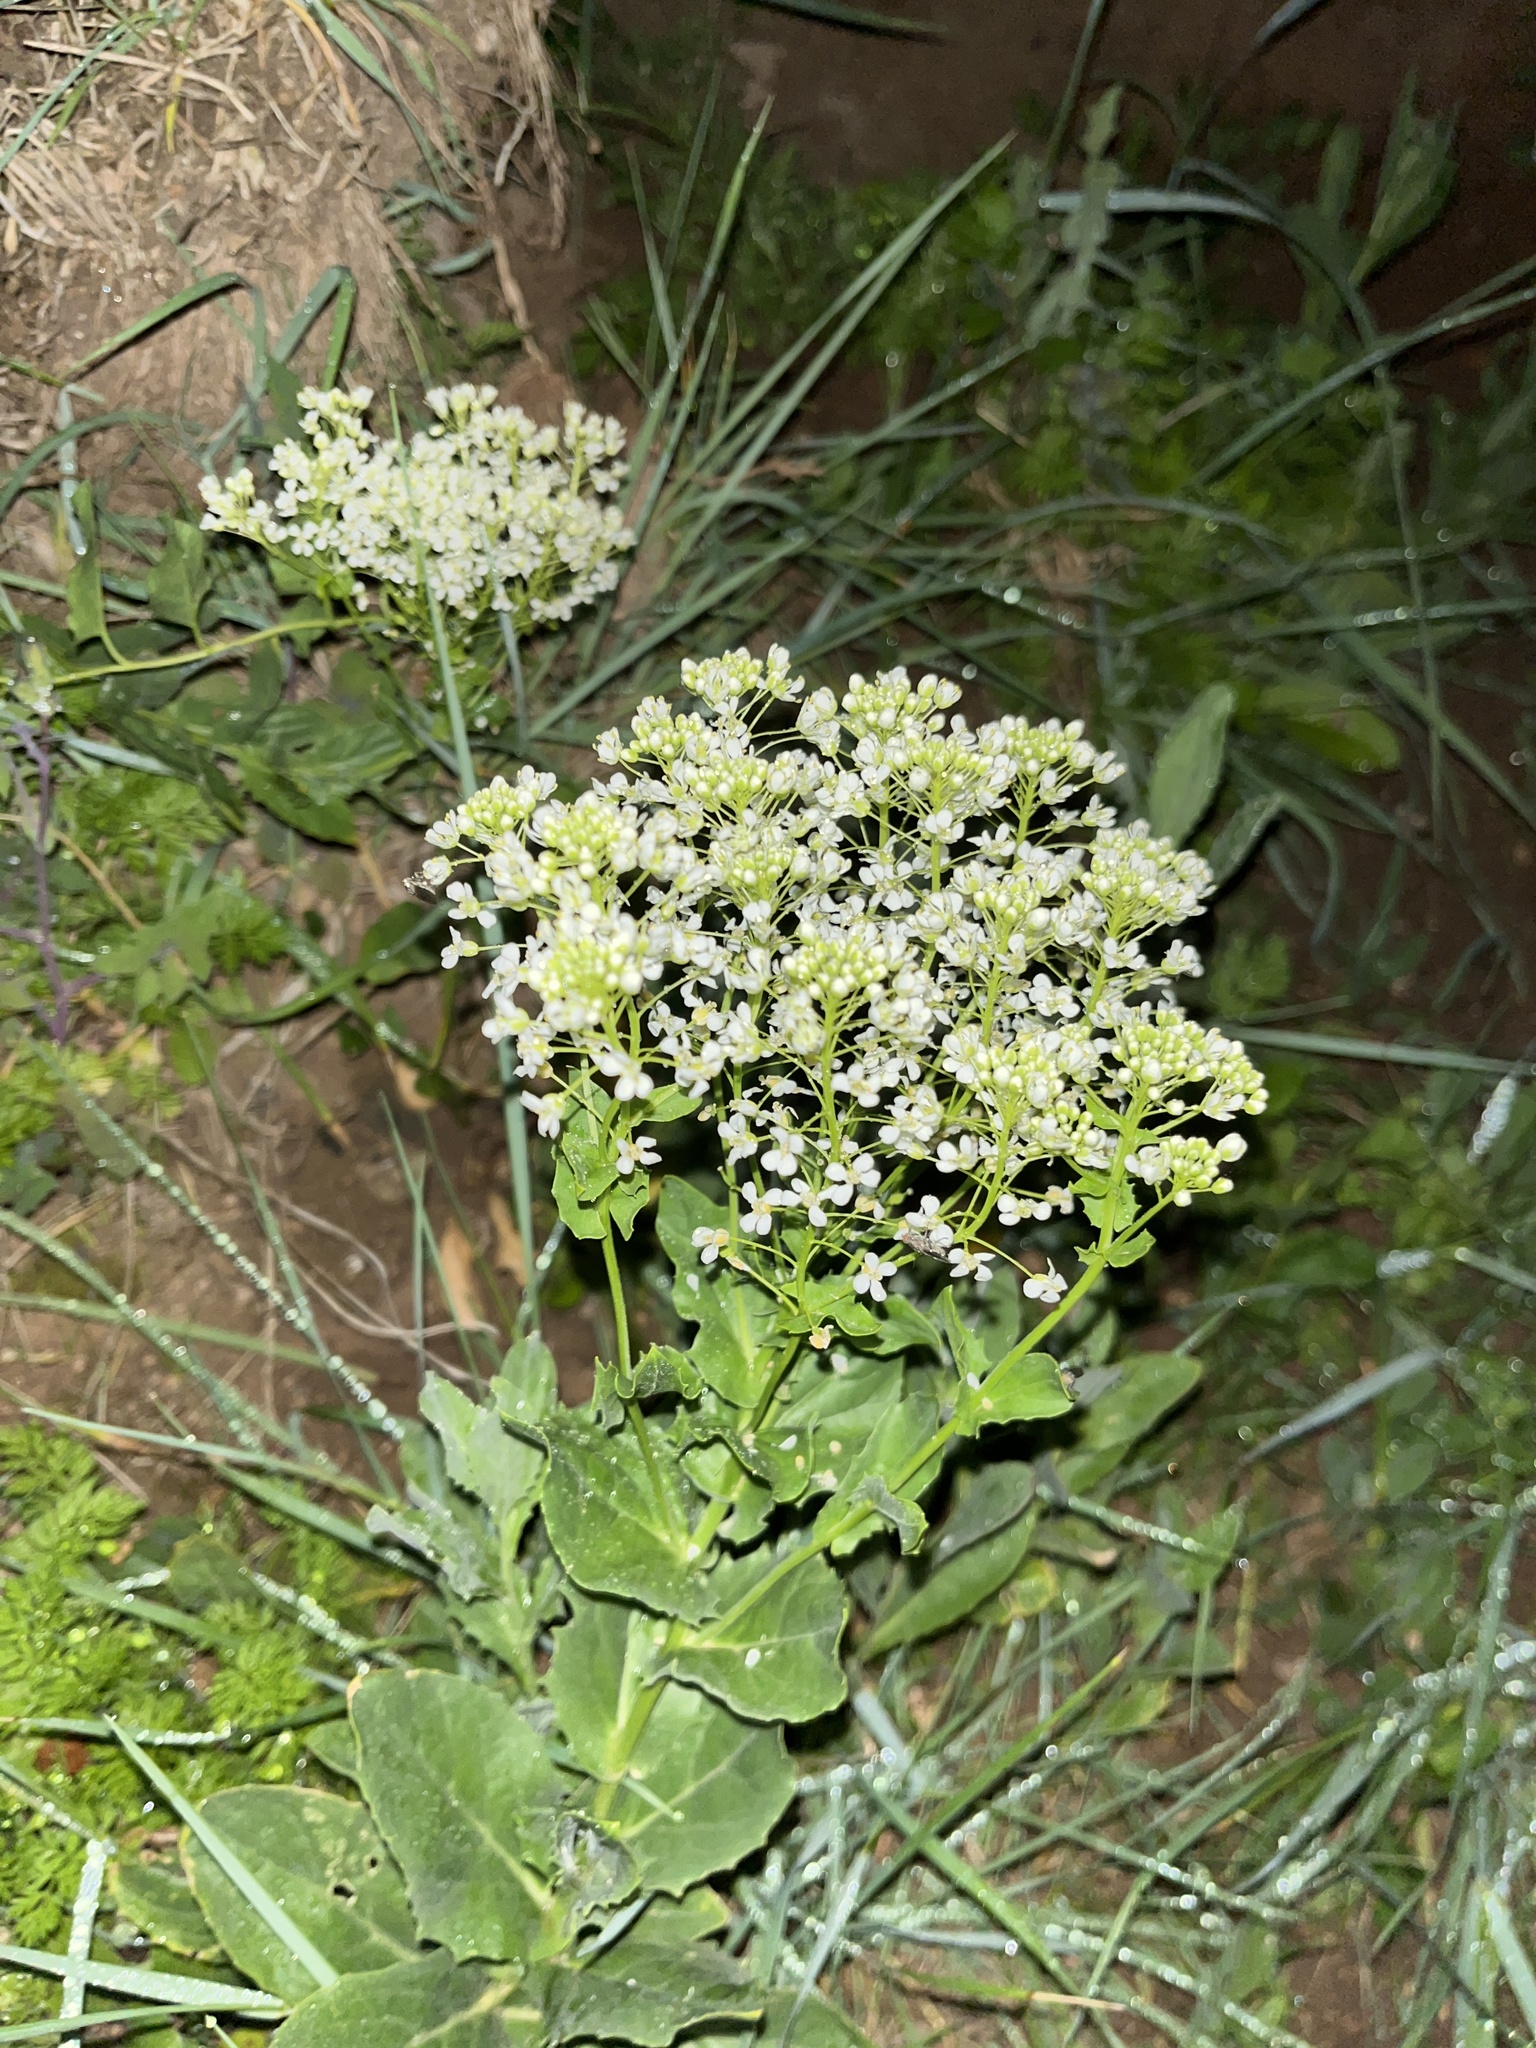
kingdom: Plantae
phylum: Tracheophyta
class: Magnoliopsida
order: Brassicales
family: Brassicaceae
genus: Lepidium
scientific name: Lepidium draba
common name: Hoary cress
